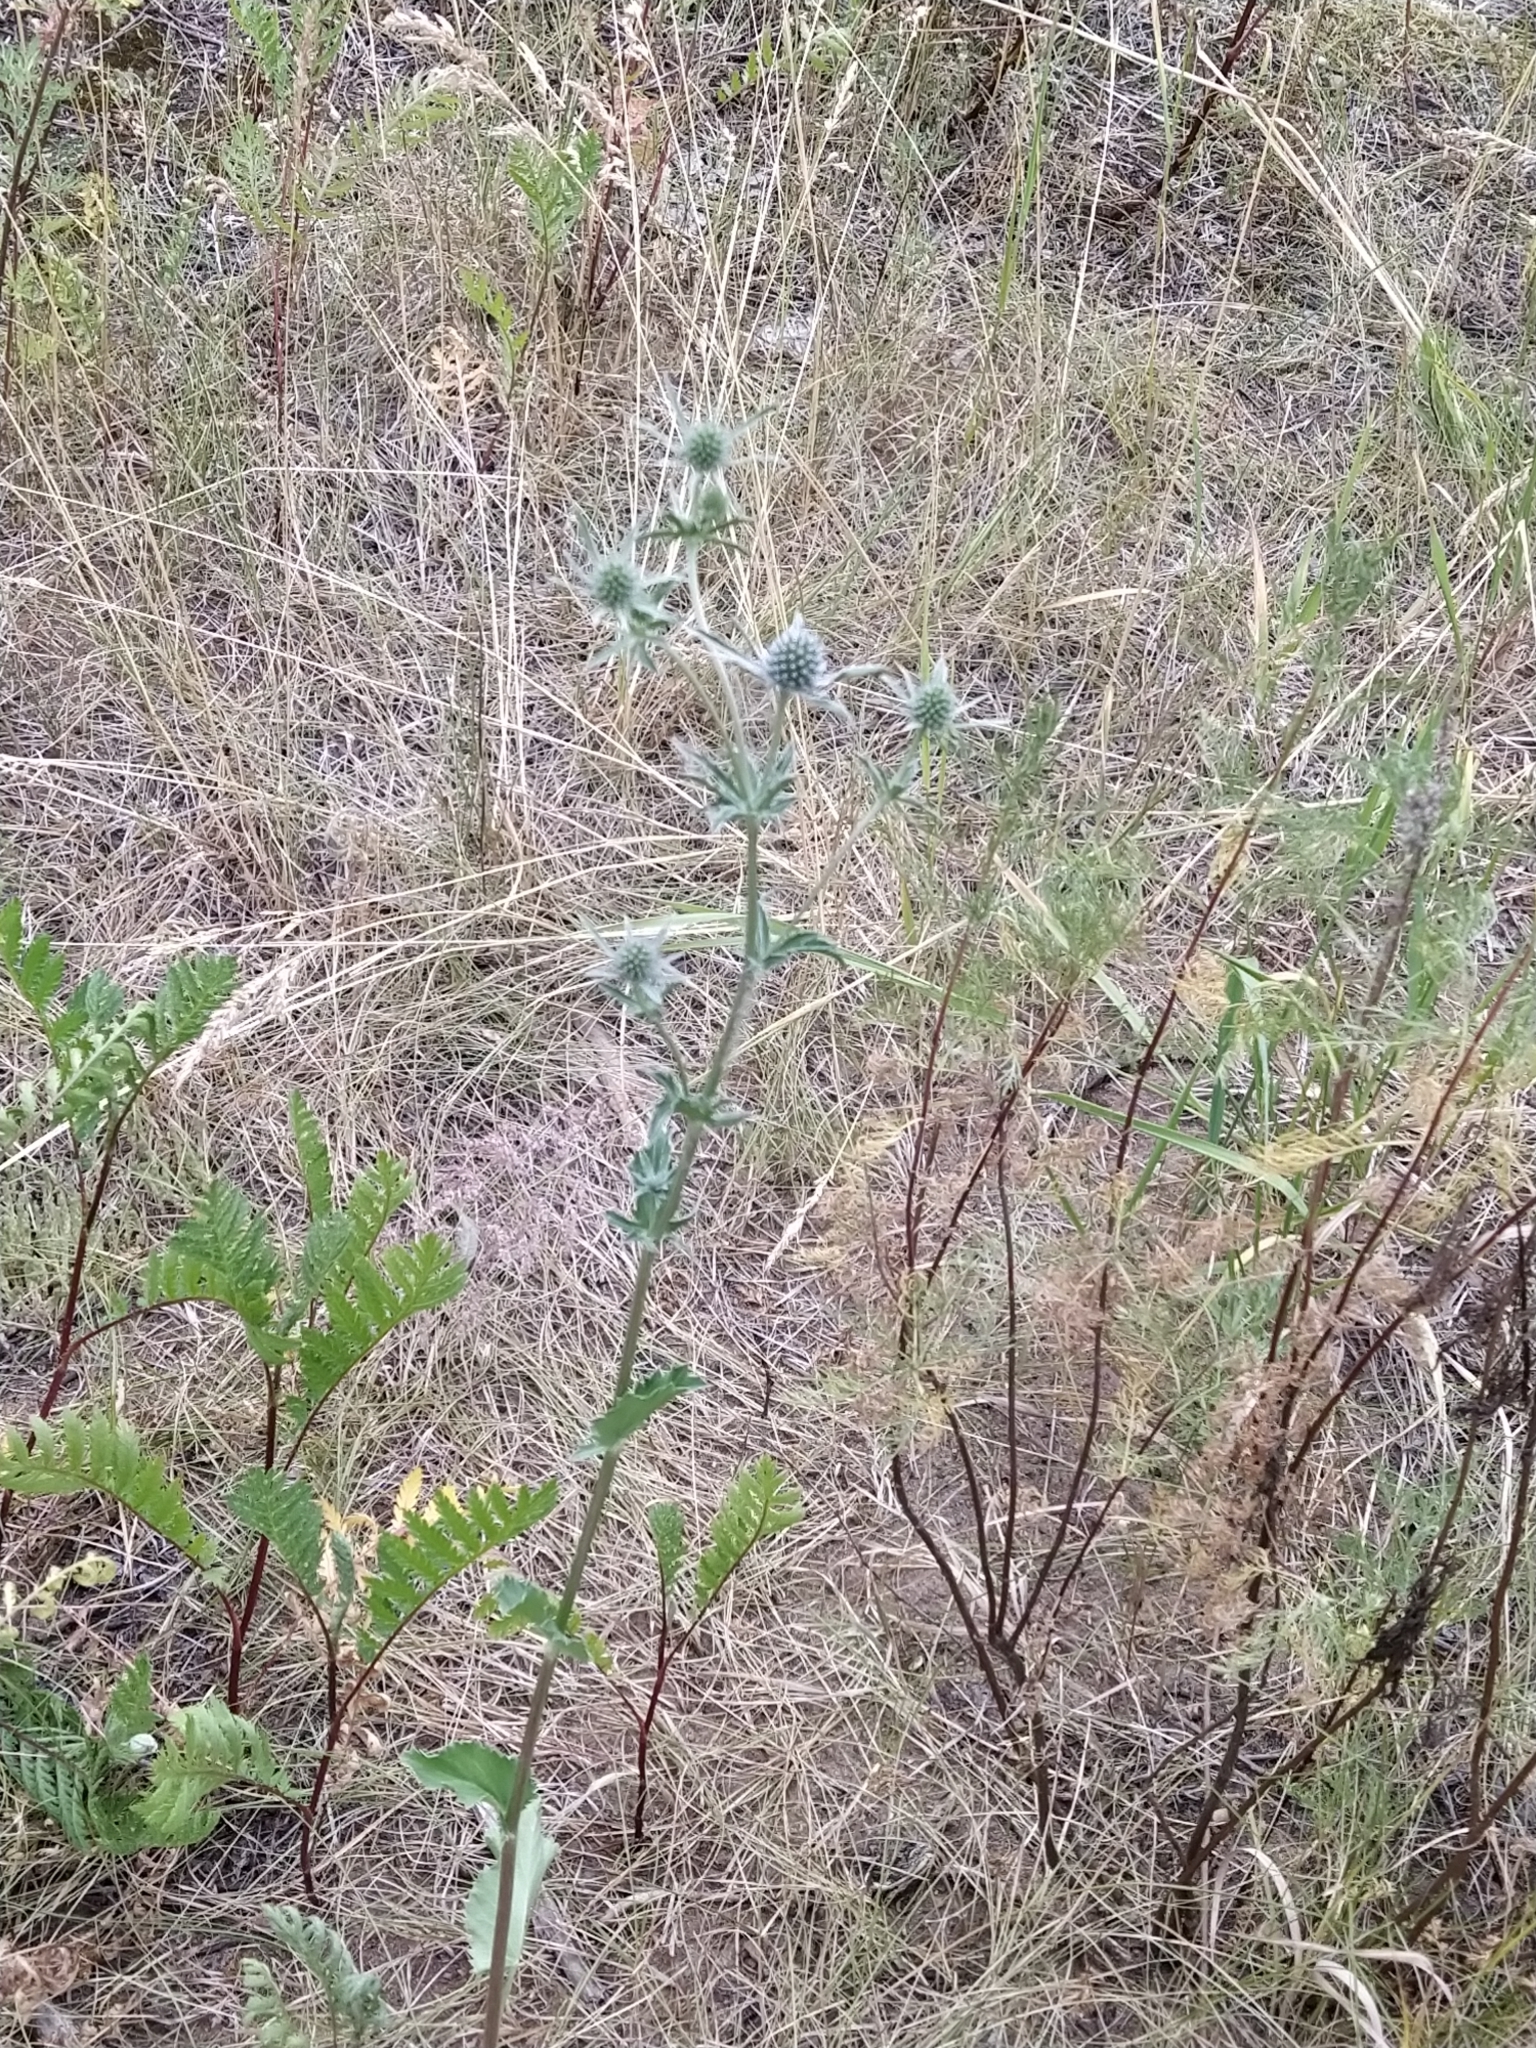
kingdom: Plantae
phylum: Tracheophyta
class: Magnoliopsida
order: Apiales
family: Apiaceae
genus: Eryngium
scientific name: Eryngium planum
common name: Blue eryngo
